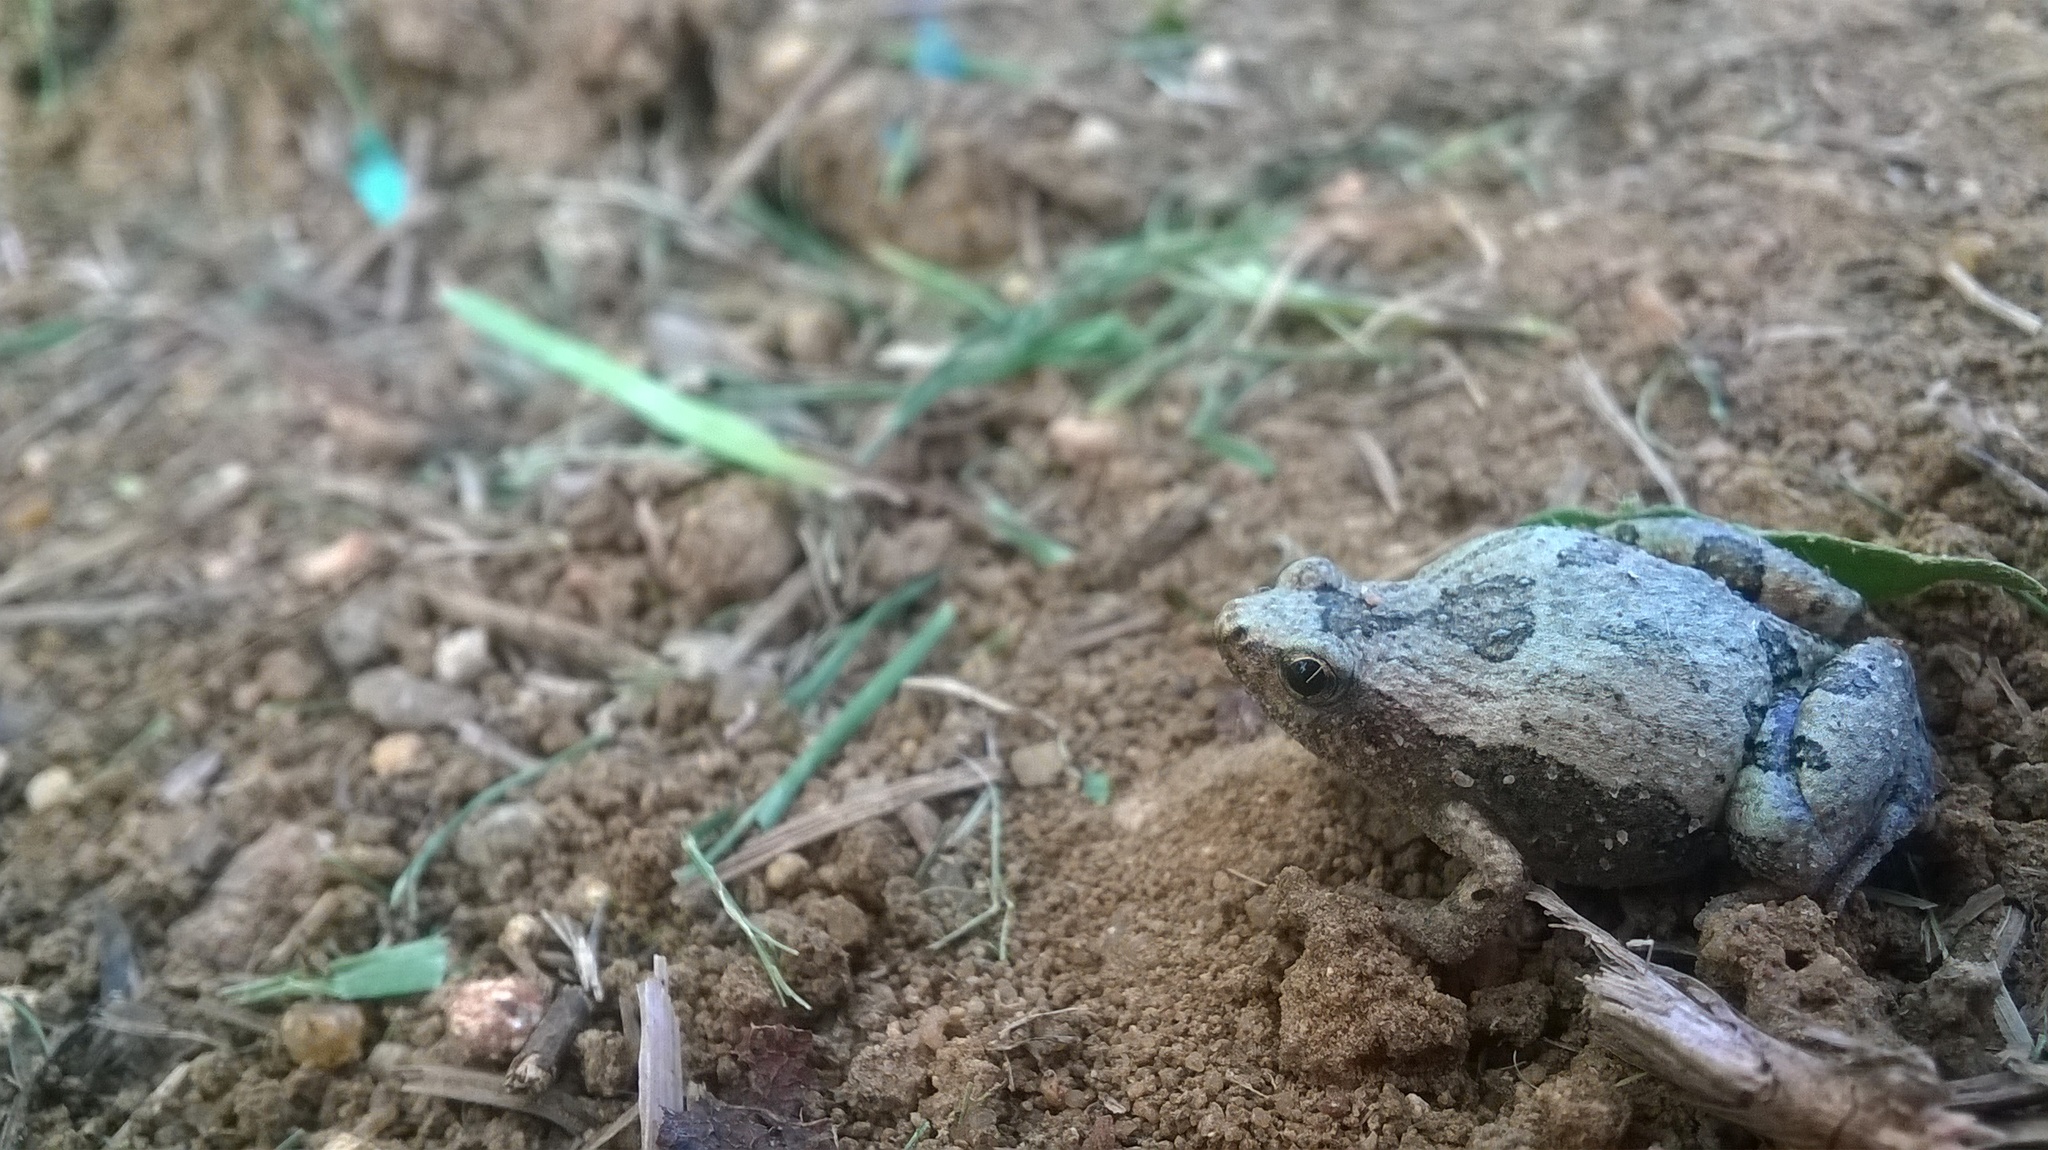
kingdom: Animalia
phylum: Chordata
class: Amphibia
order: Anura
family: Microhylidae
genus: Microhyla
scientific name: Microhyla ornata
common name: Ant frog
